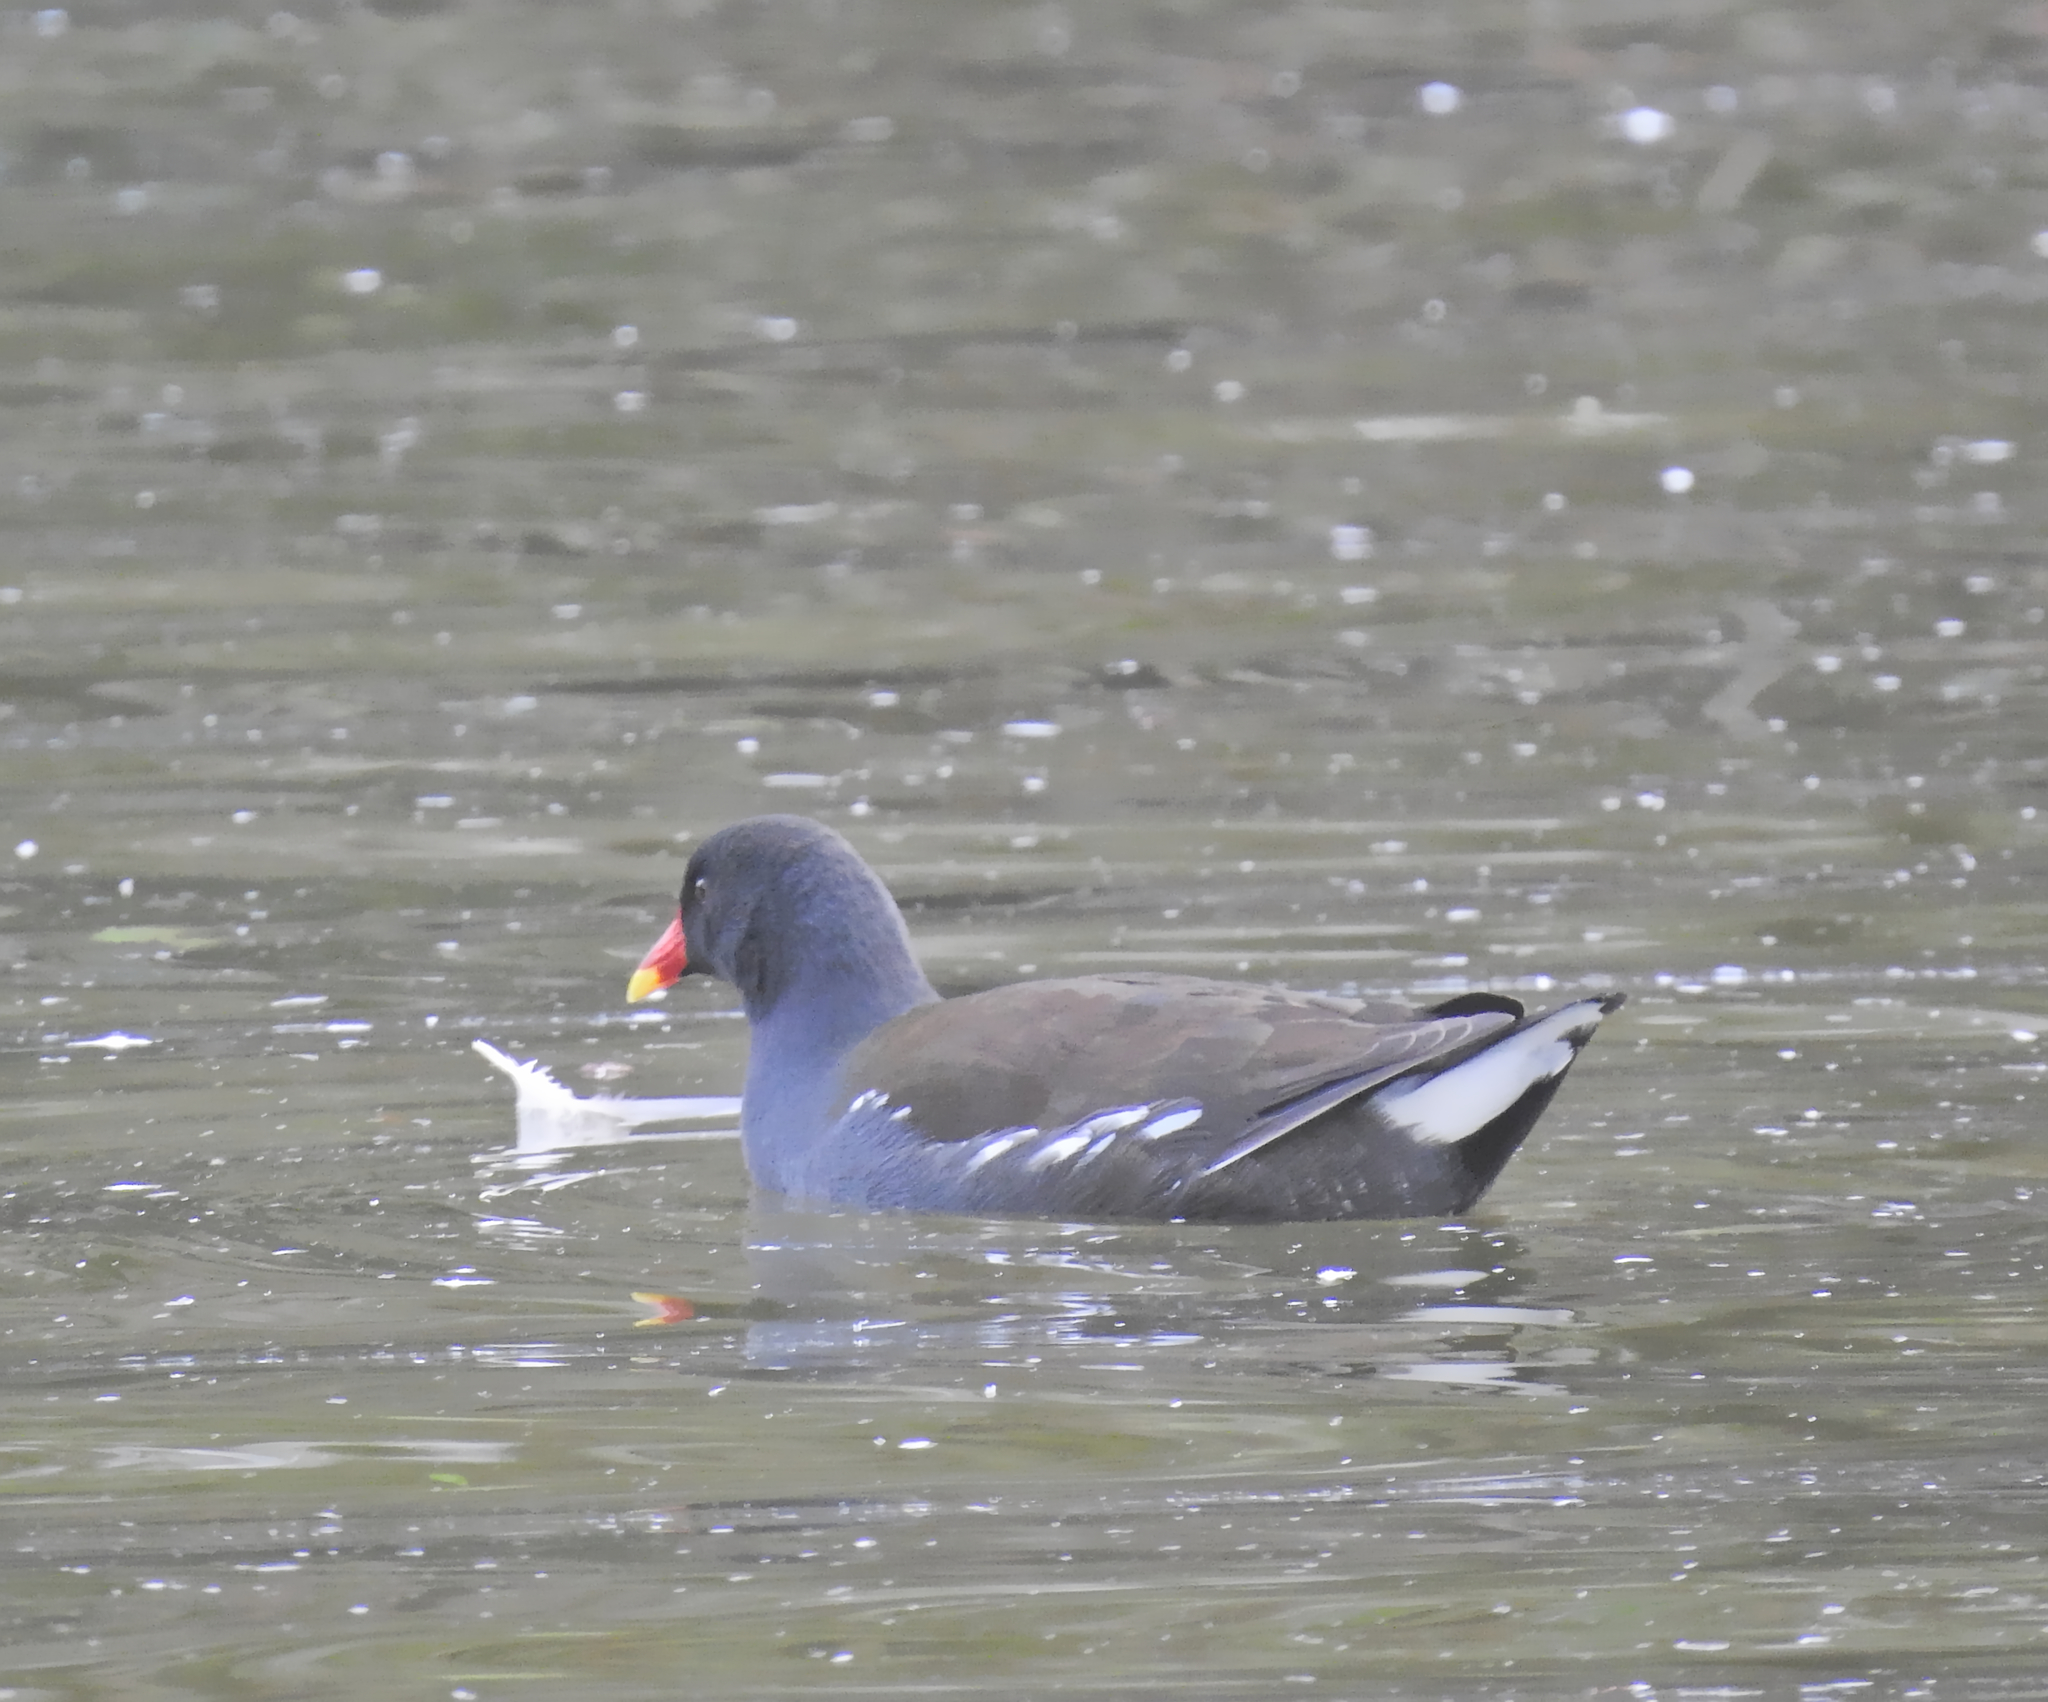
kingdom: Animalia
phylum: Chordata
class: Aves
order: Gruiformes
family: Rallidae
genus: Gallinula
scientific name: Gallinula chloropus
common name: Common moorhen
